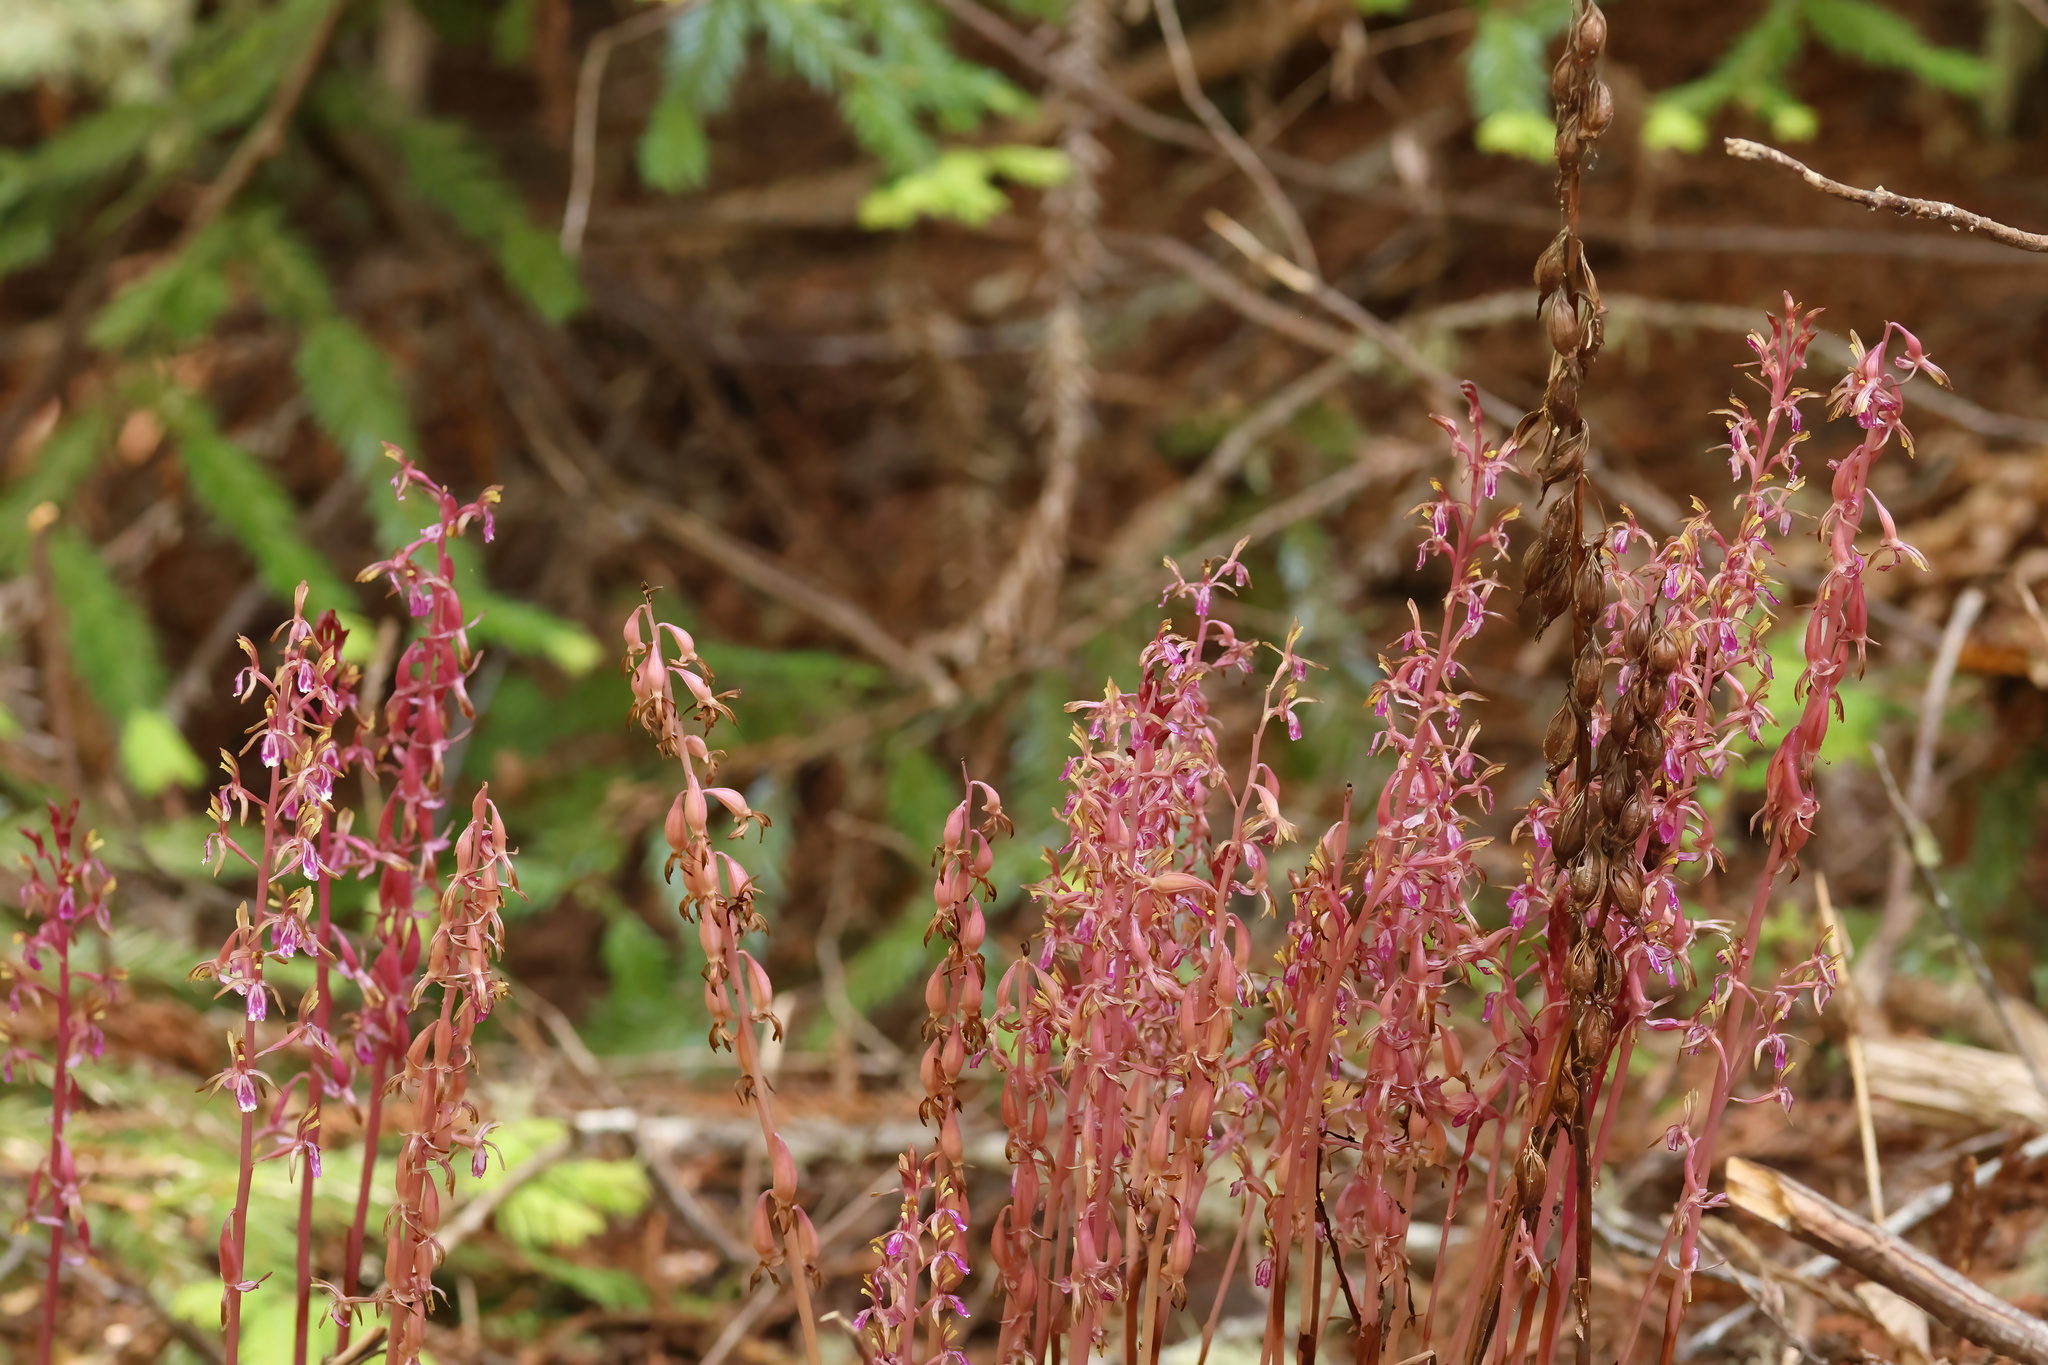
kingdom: Plantae
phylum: Tracheophyta
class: Liliopsida
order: Asparagales
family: Orchidaceae
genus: Corallorhiza
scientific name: Corallorhiza mertensiana
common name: Pacific coralroot
